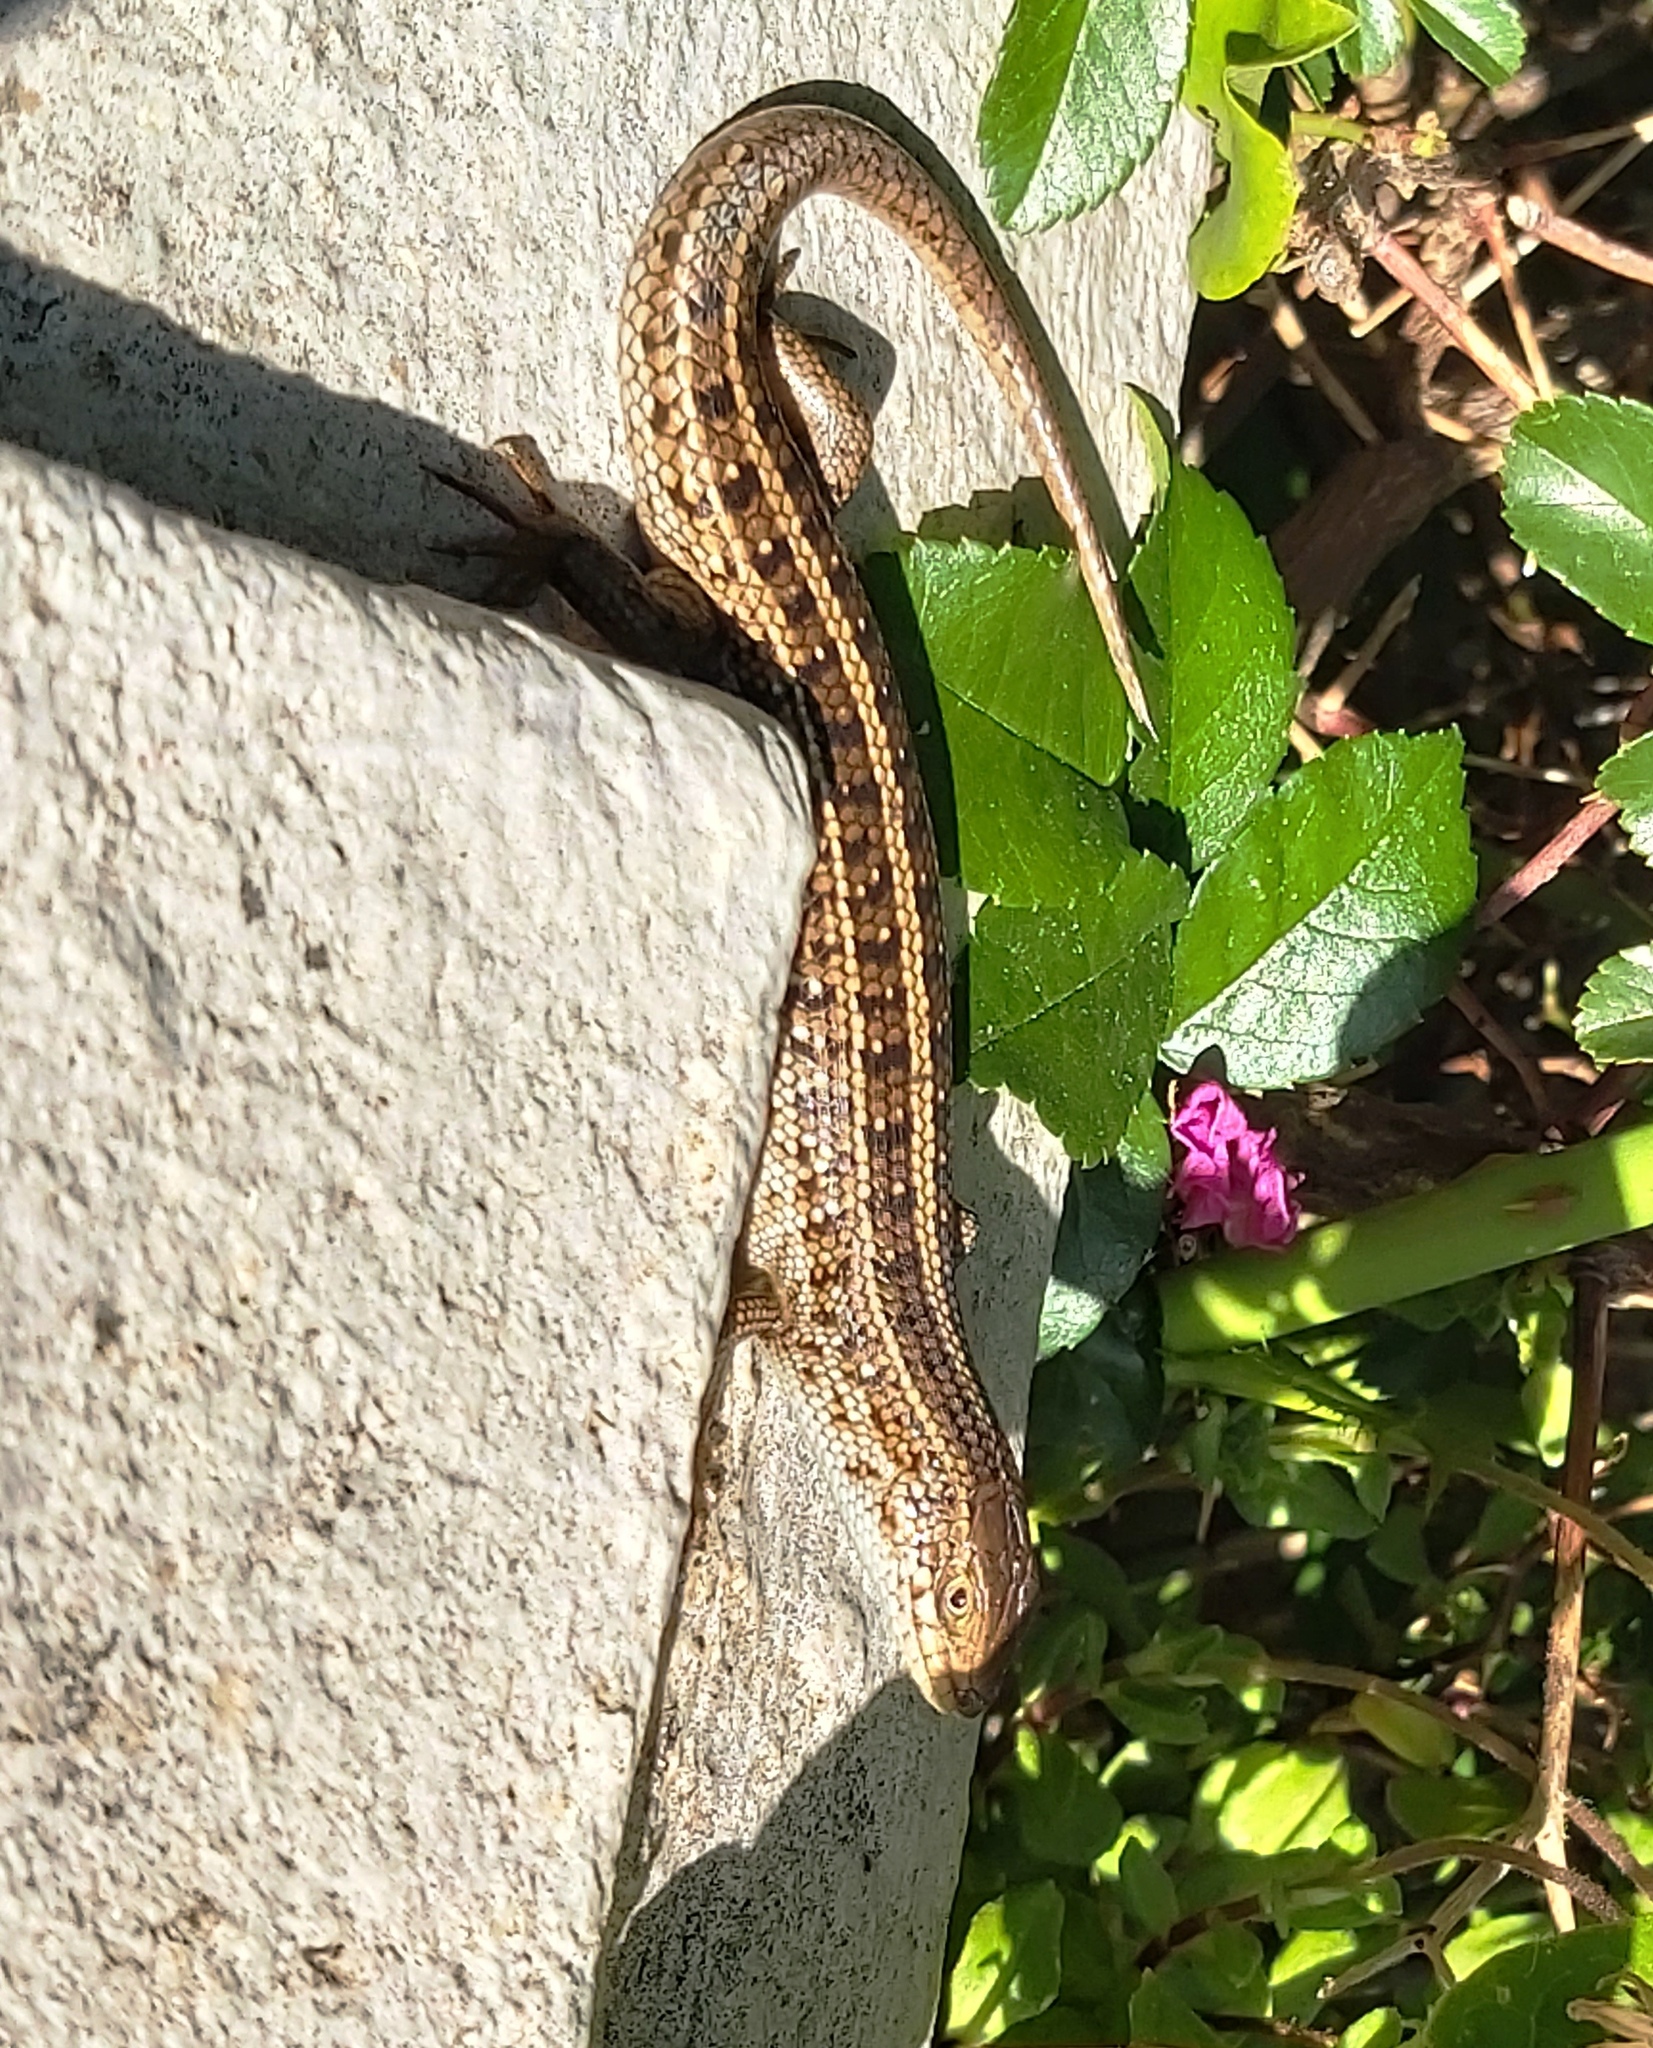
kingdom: Animalia
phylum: Chordata
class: Squamata
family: Scincidae
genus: Trachylepis
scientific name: Trachylepis capensis
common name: Cape skink
